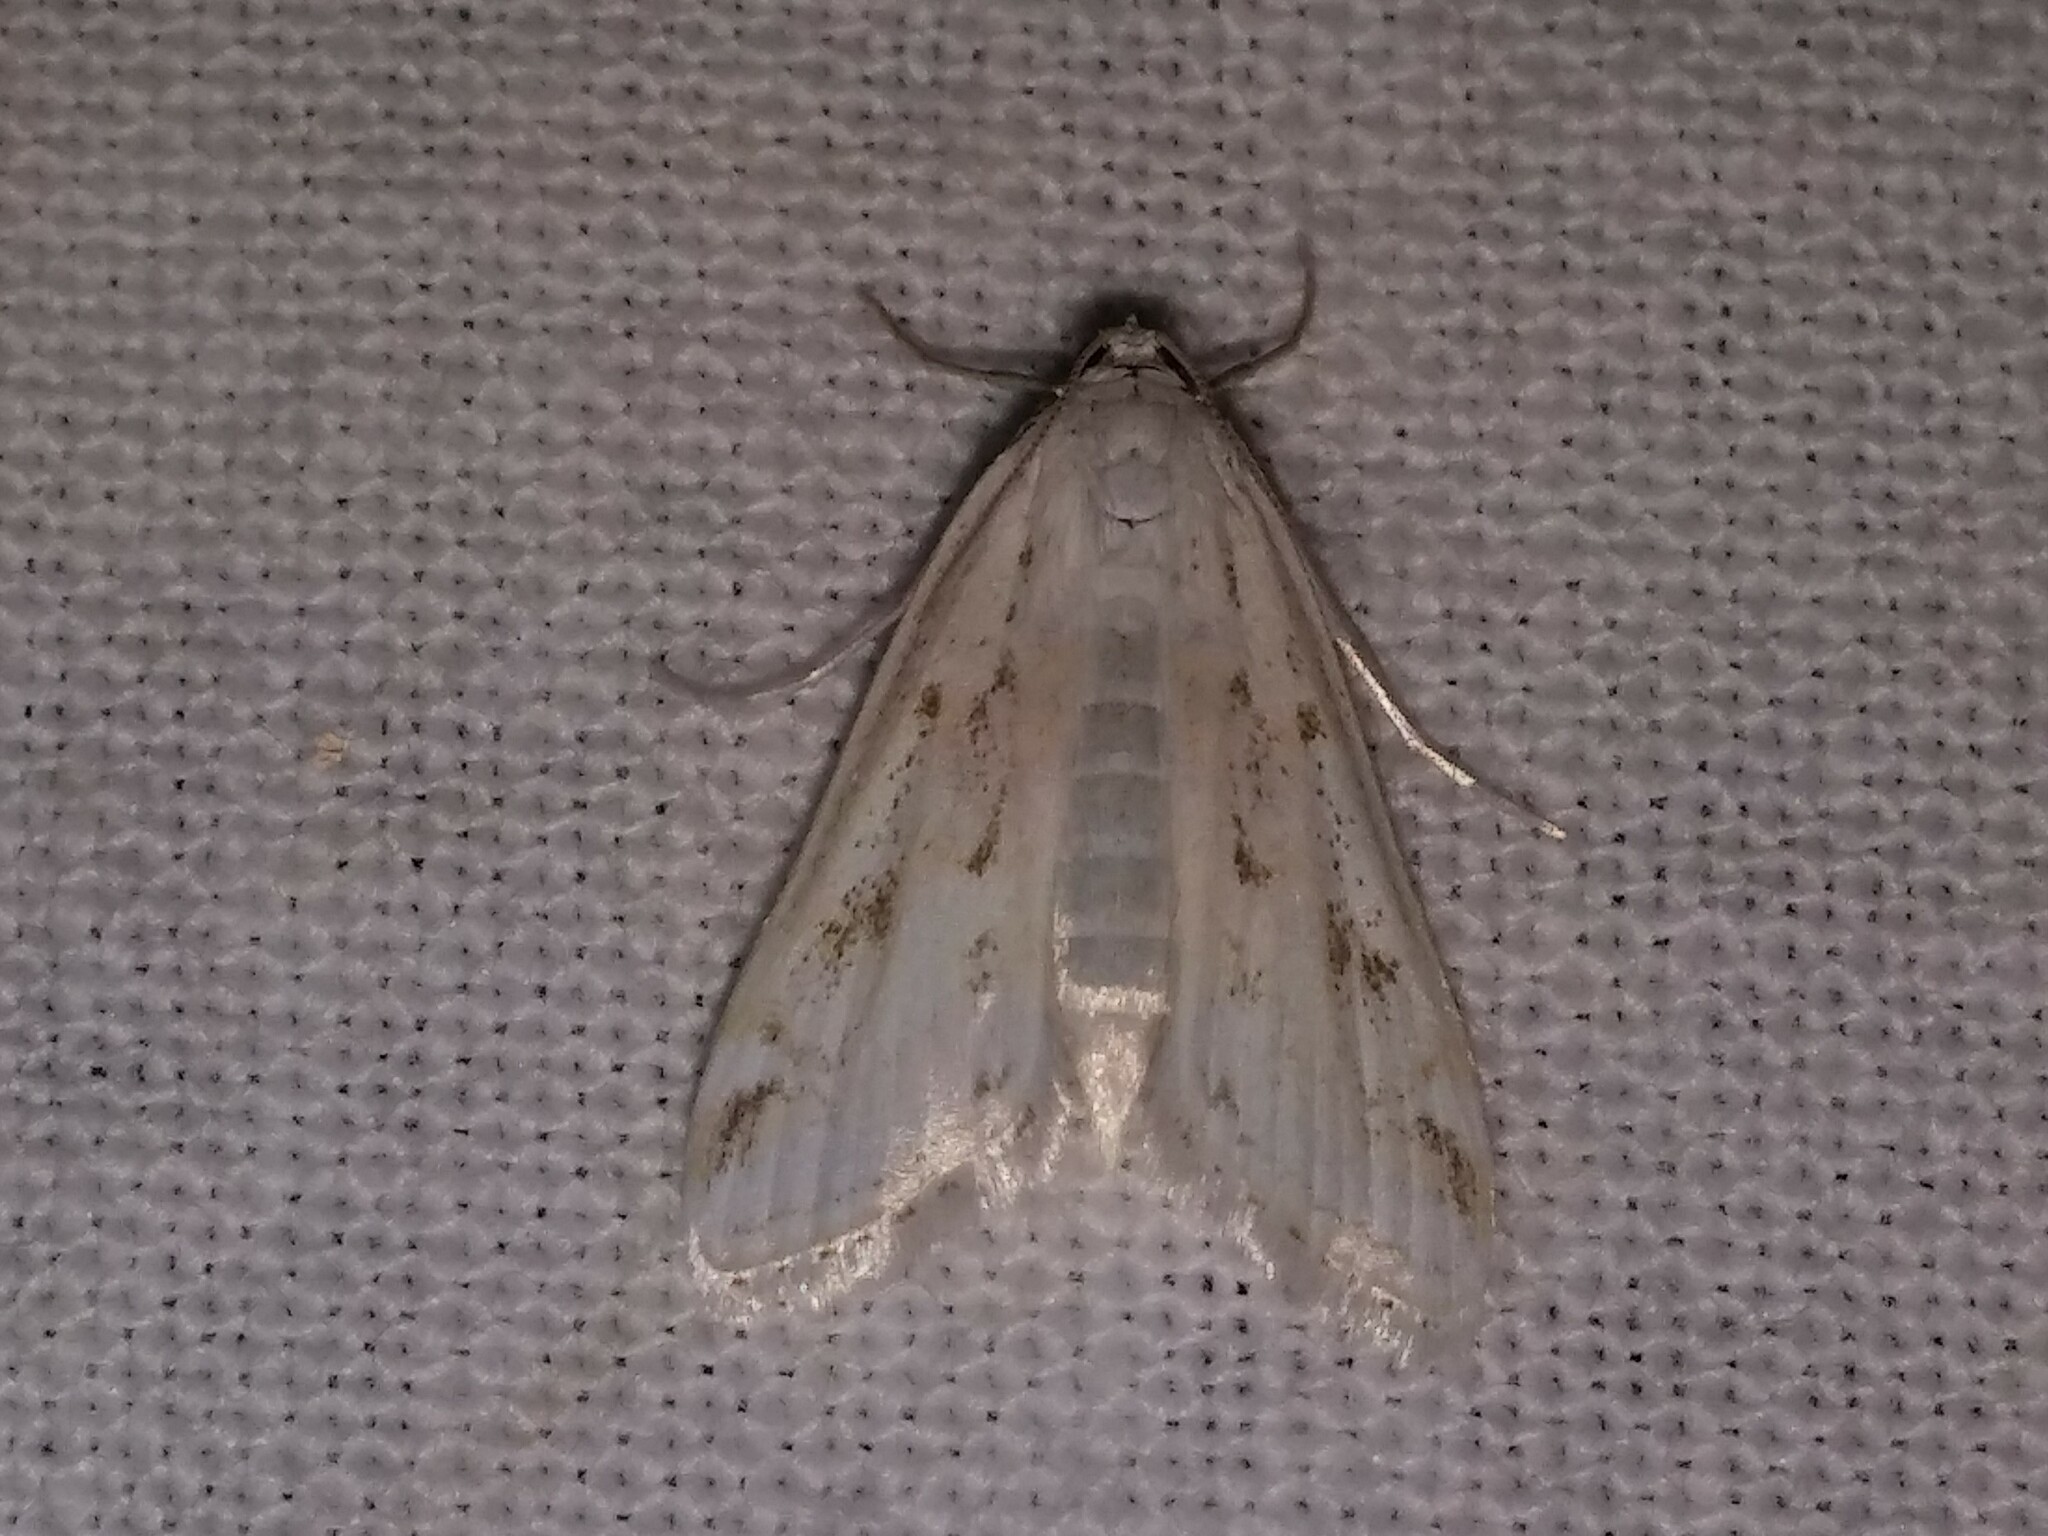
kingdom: Animalia
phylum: Arthropoda
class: Insecta
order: Lepidoptera
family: Crambidae
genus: Parapoynx
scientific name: Parapoynx allionealis
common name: Bladderwort casemaker
